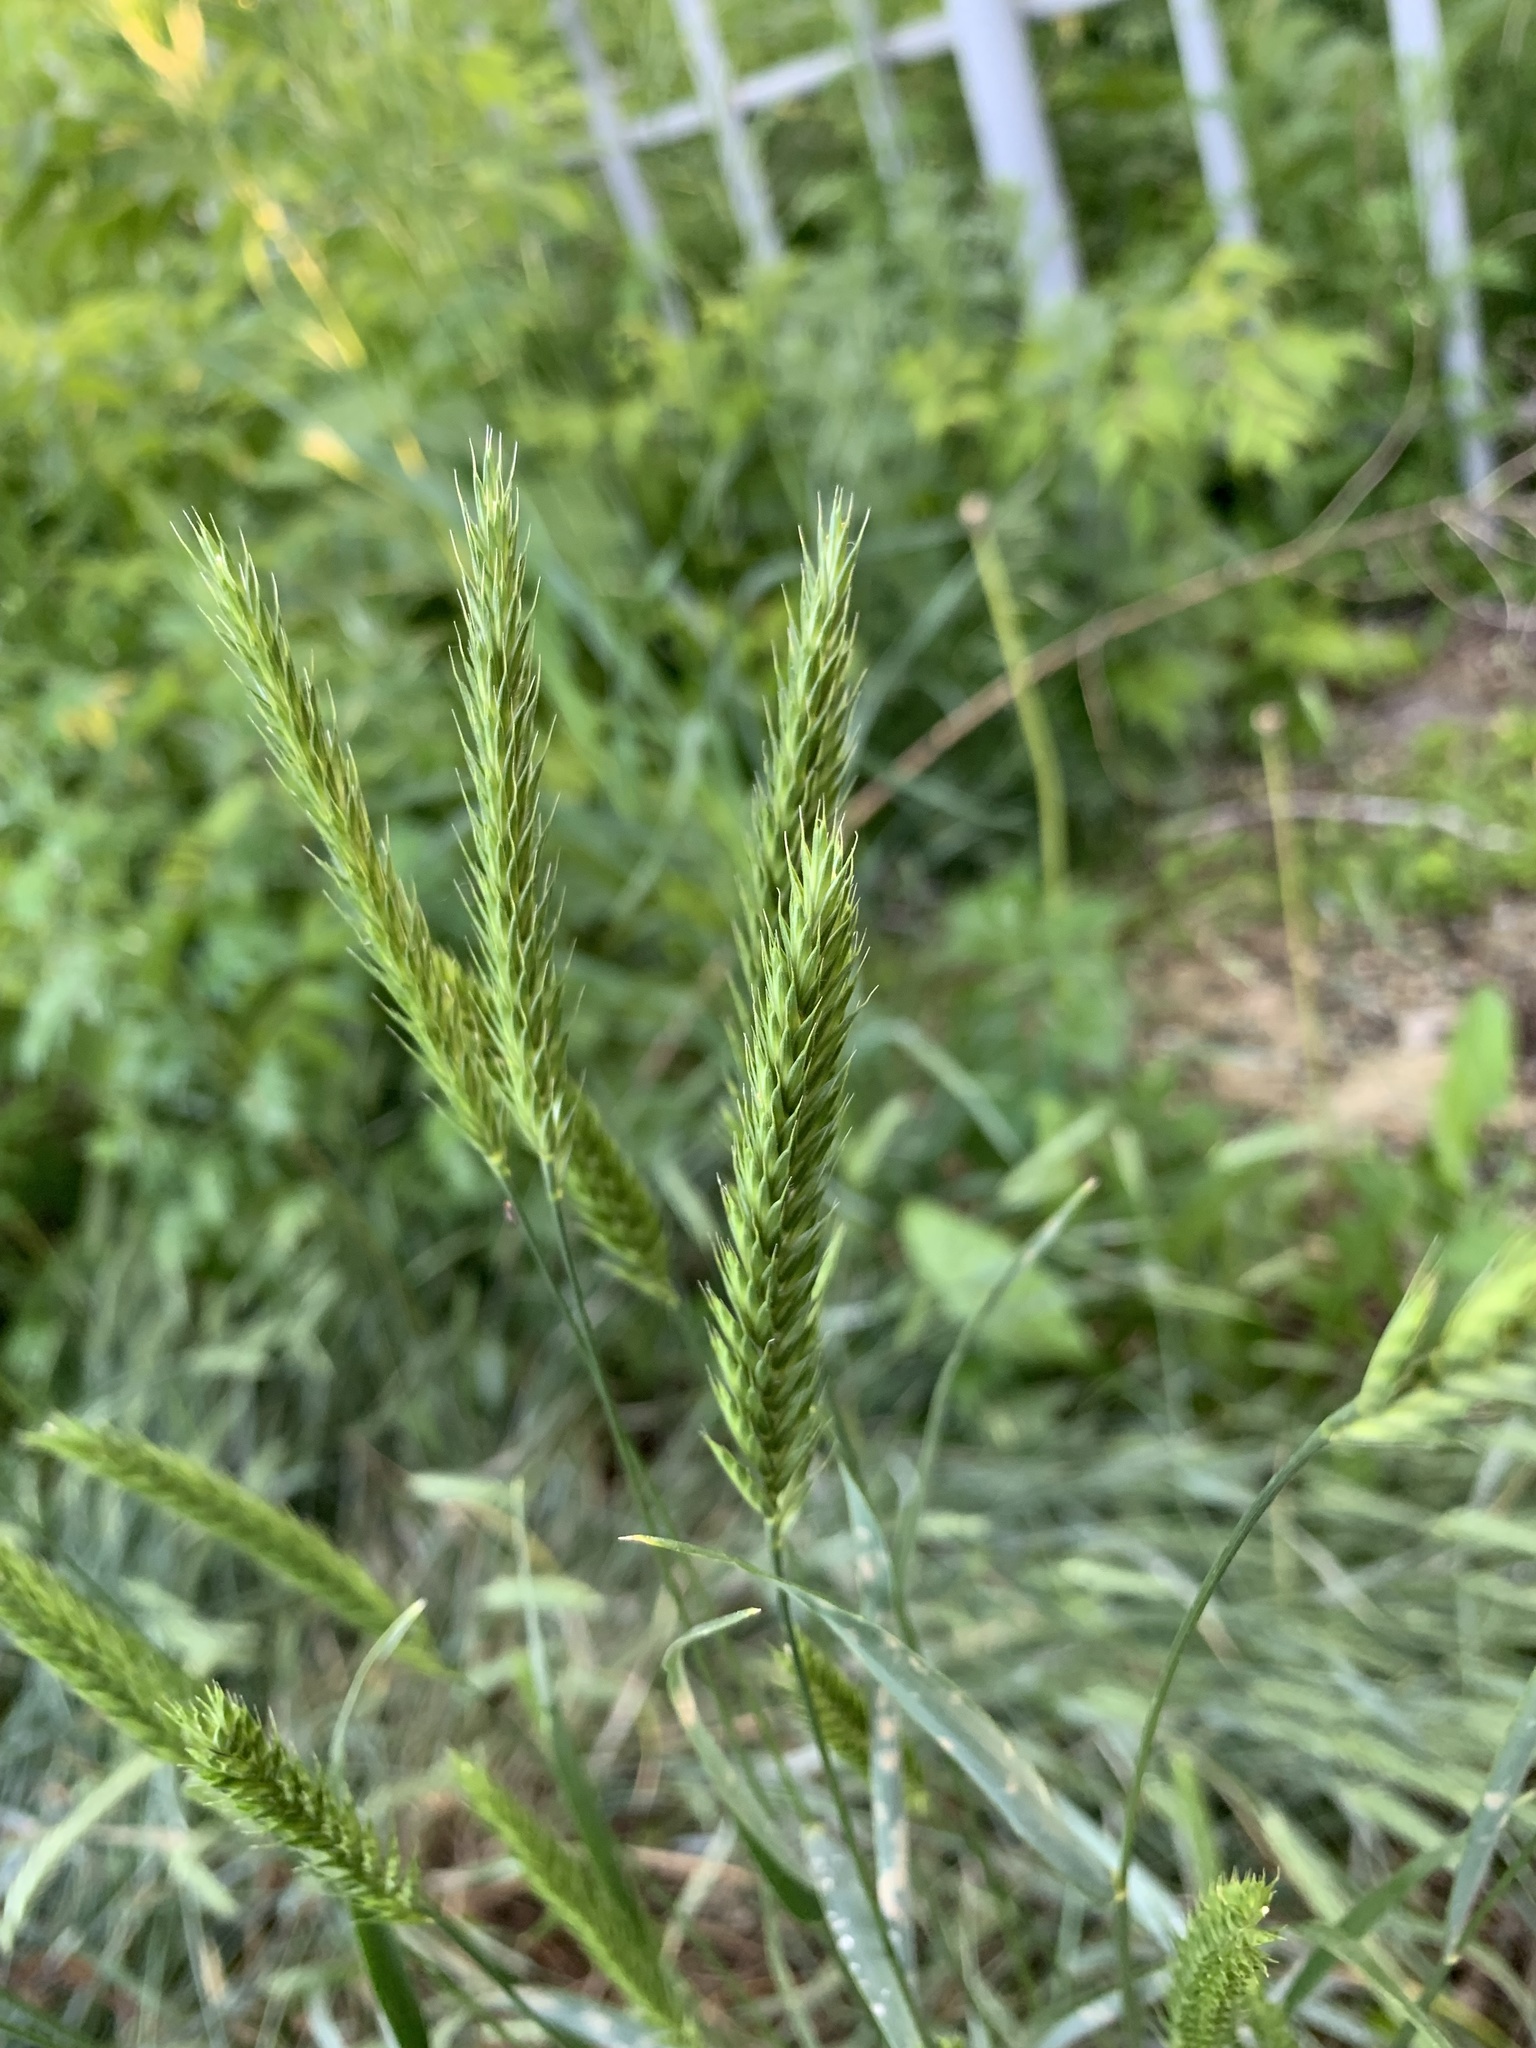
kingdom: Plantae
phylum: Tracheophyta
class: Liliopsida
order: Poales
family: Poaceae
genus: Agropyron
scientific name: Agropyron cristatum
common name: Crested wheatgrass
